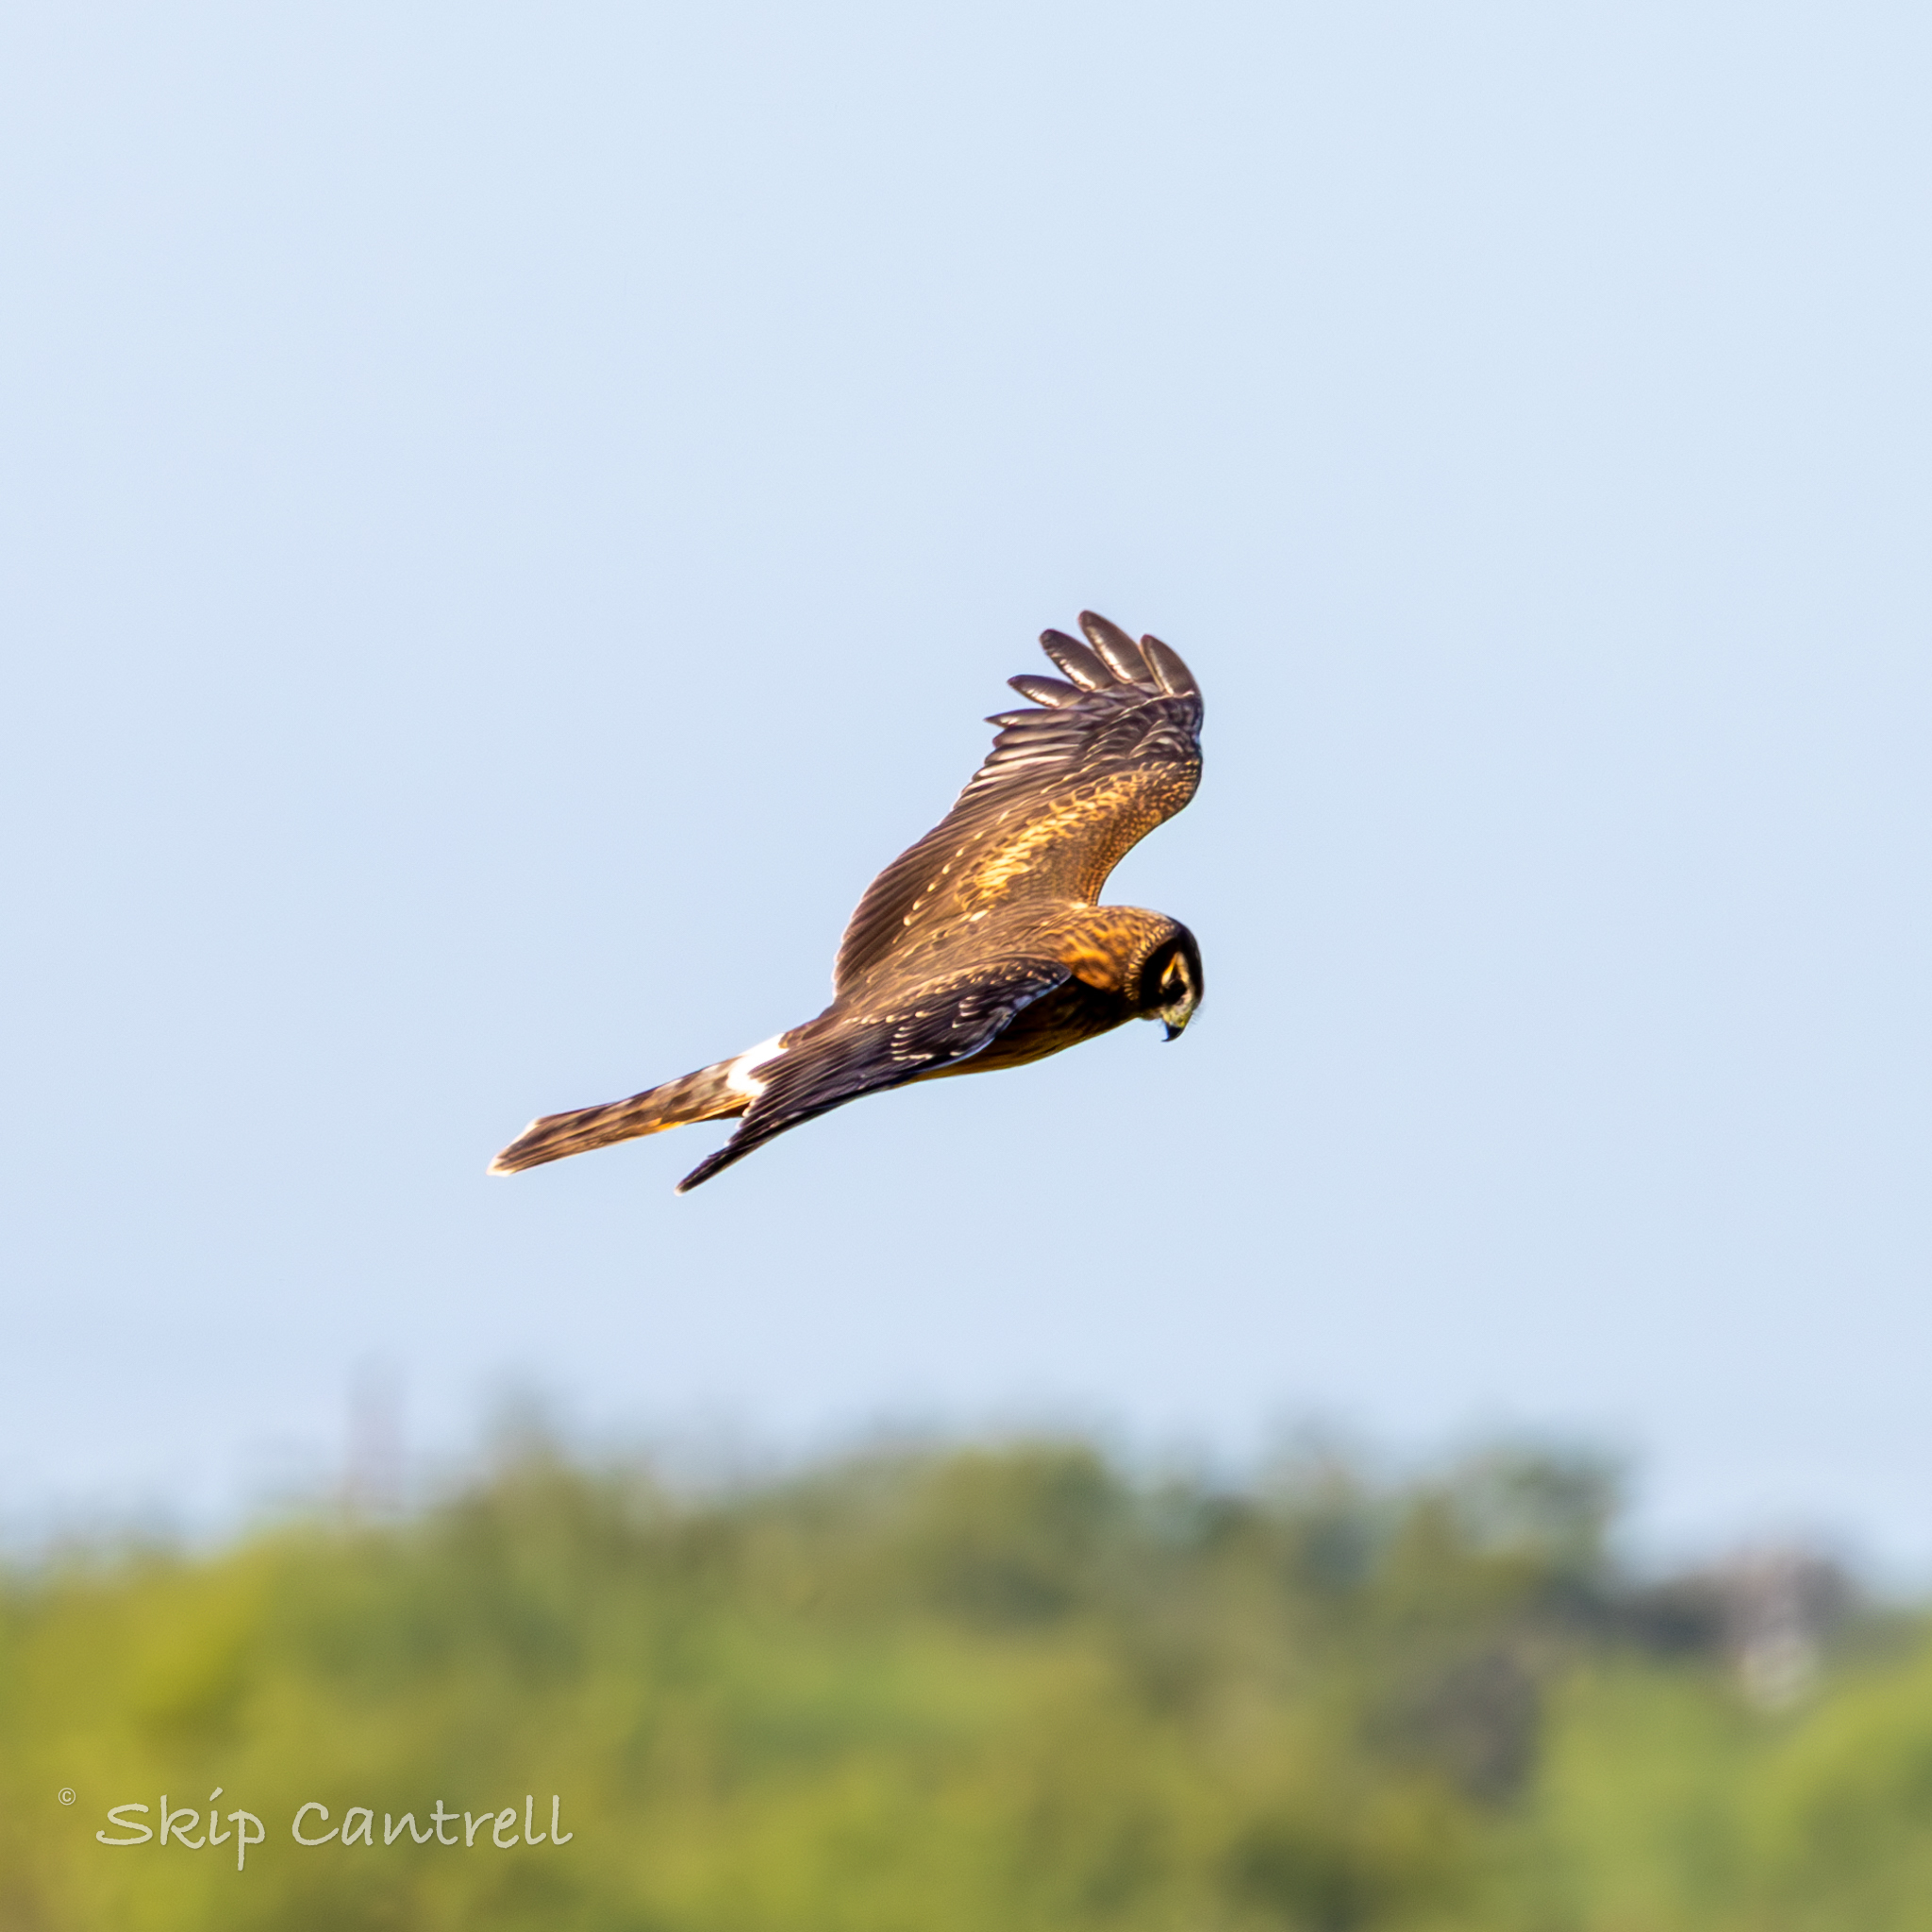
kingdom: Animalia
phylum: Chordata
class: Aves
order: Accipitriformes
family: Accipitridae
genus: Circus
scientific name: Circus cyaneus
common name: Hen harrier
